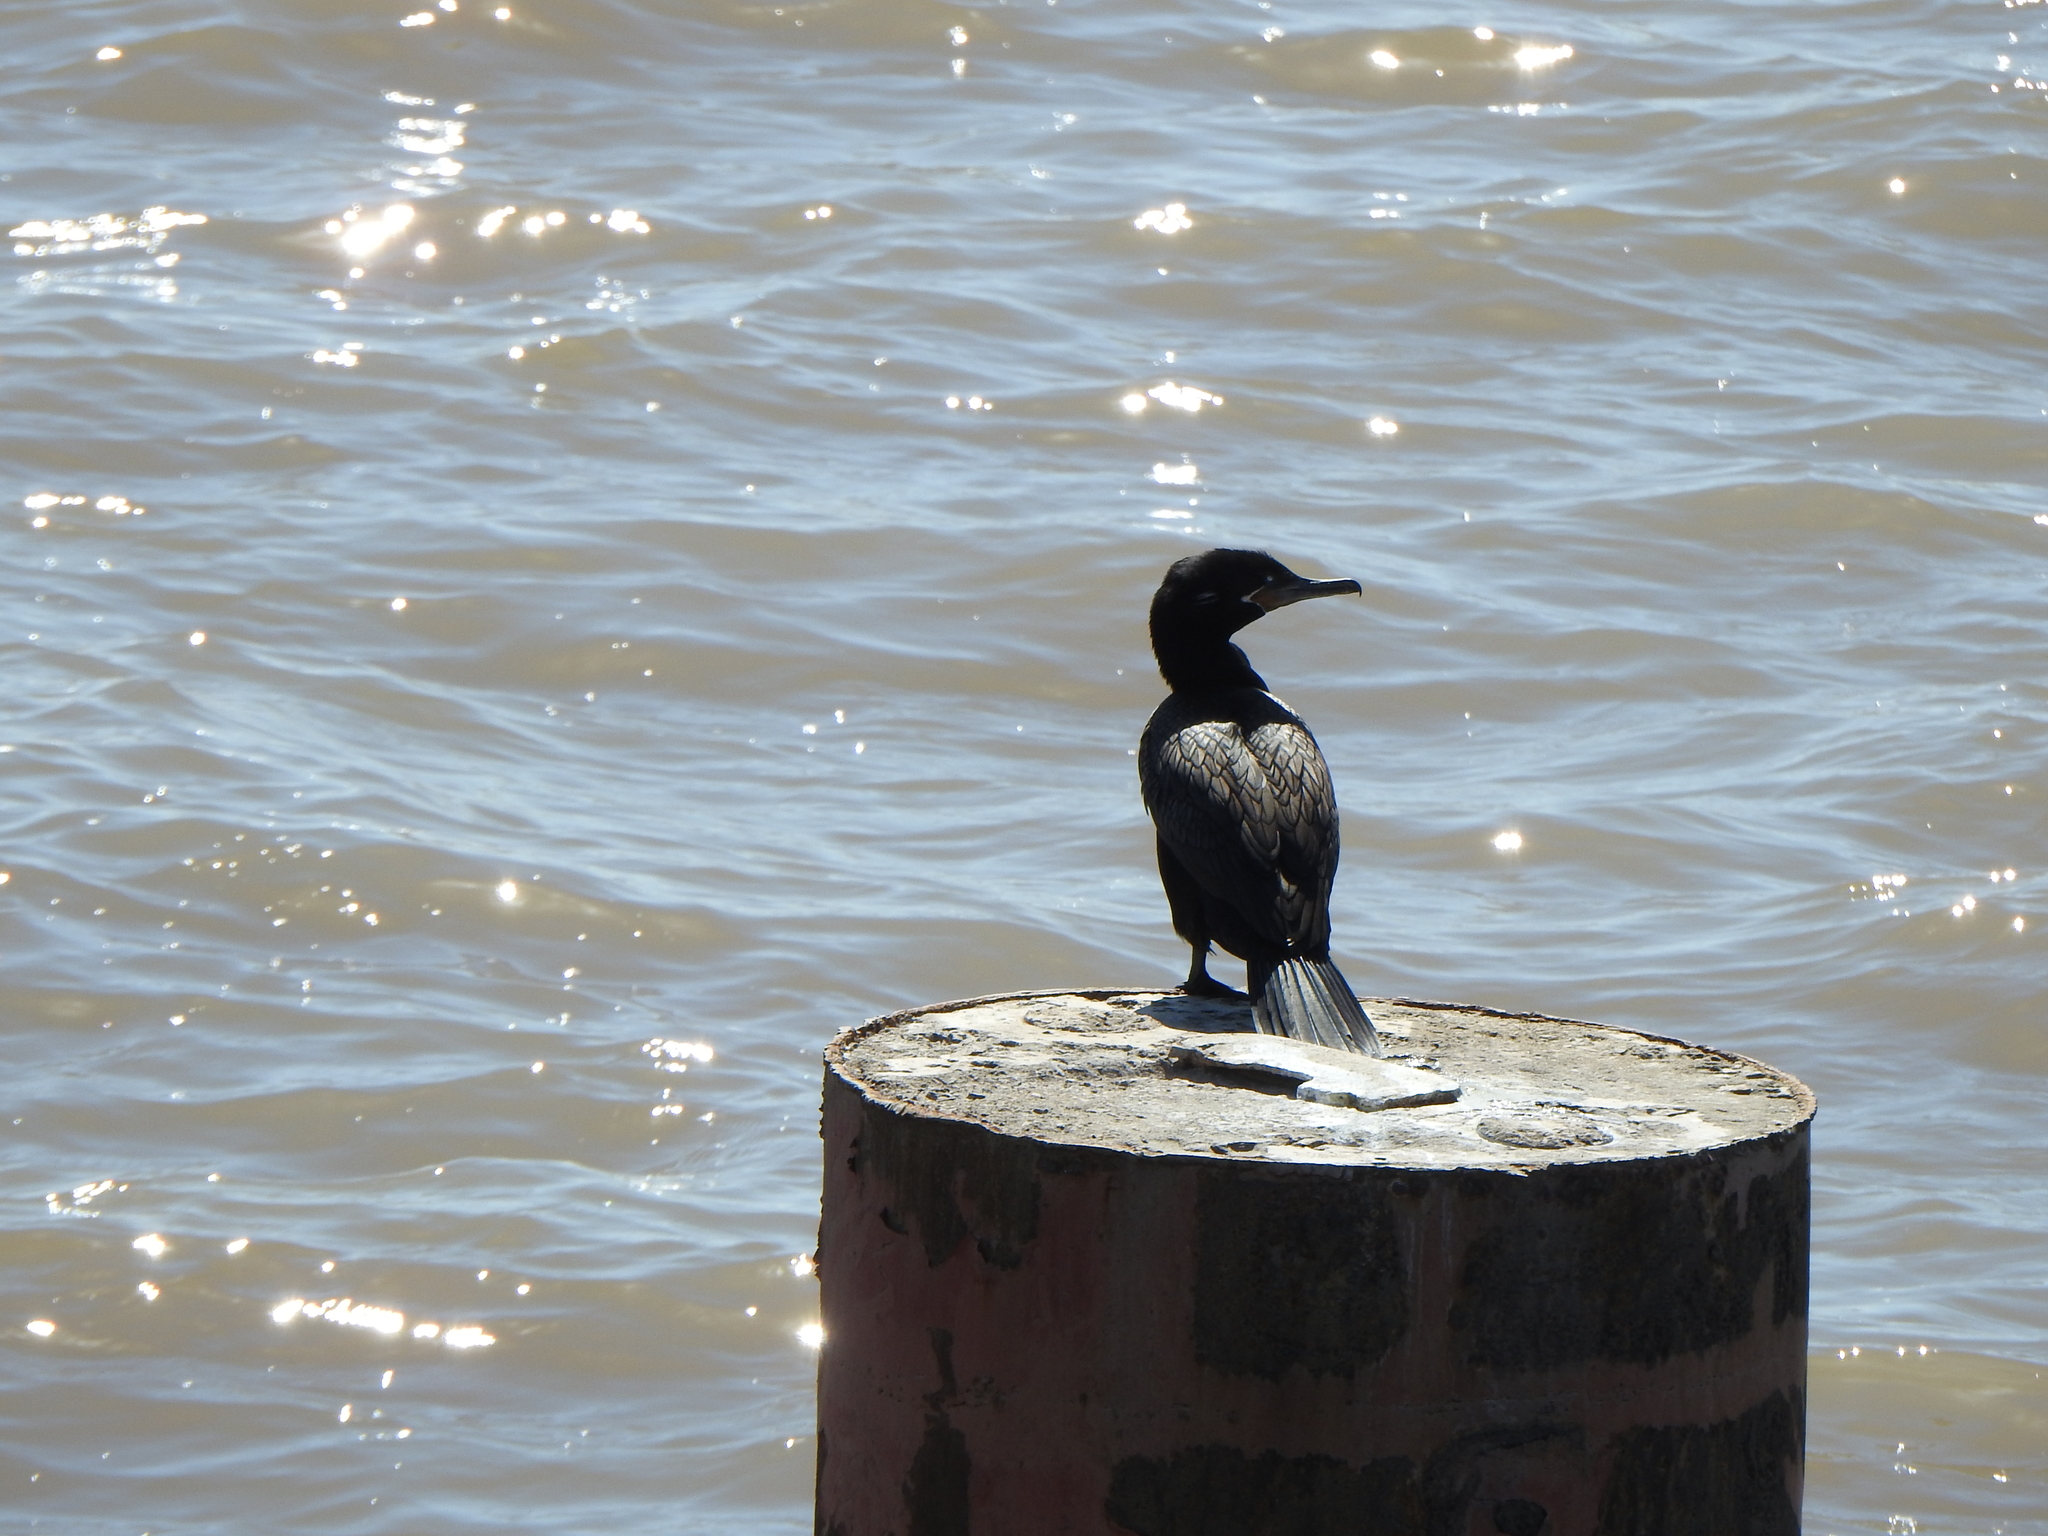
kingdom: Animalia
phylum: Chordata
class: Aves
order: Suliformes
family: Phalacrocoracidae
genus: Phalacrocorax
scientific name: Phalacrocorax brasilianus
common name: Neotropic cormorant
